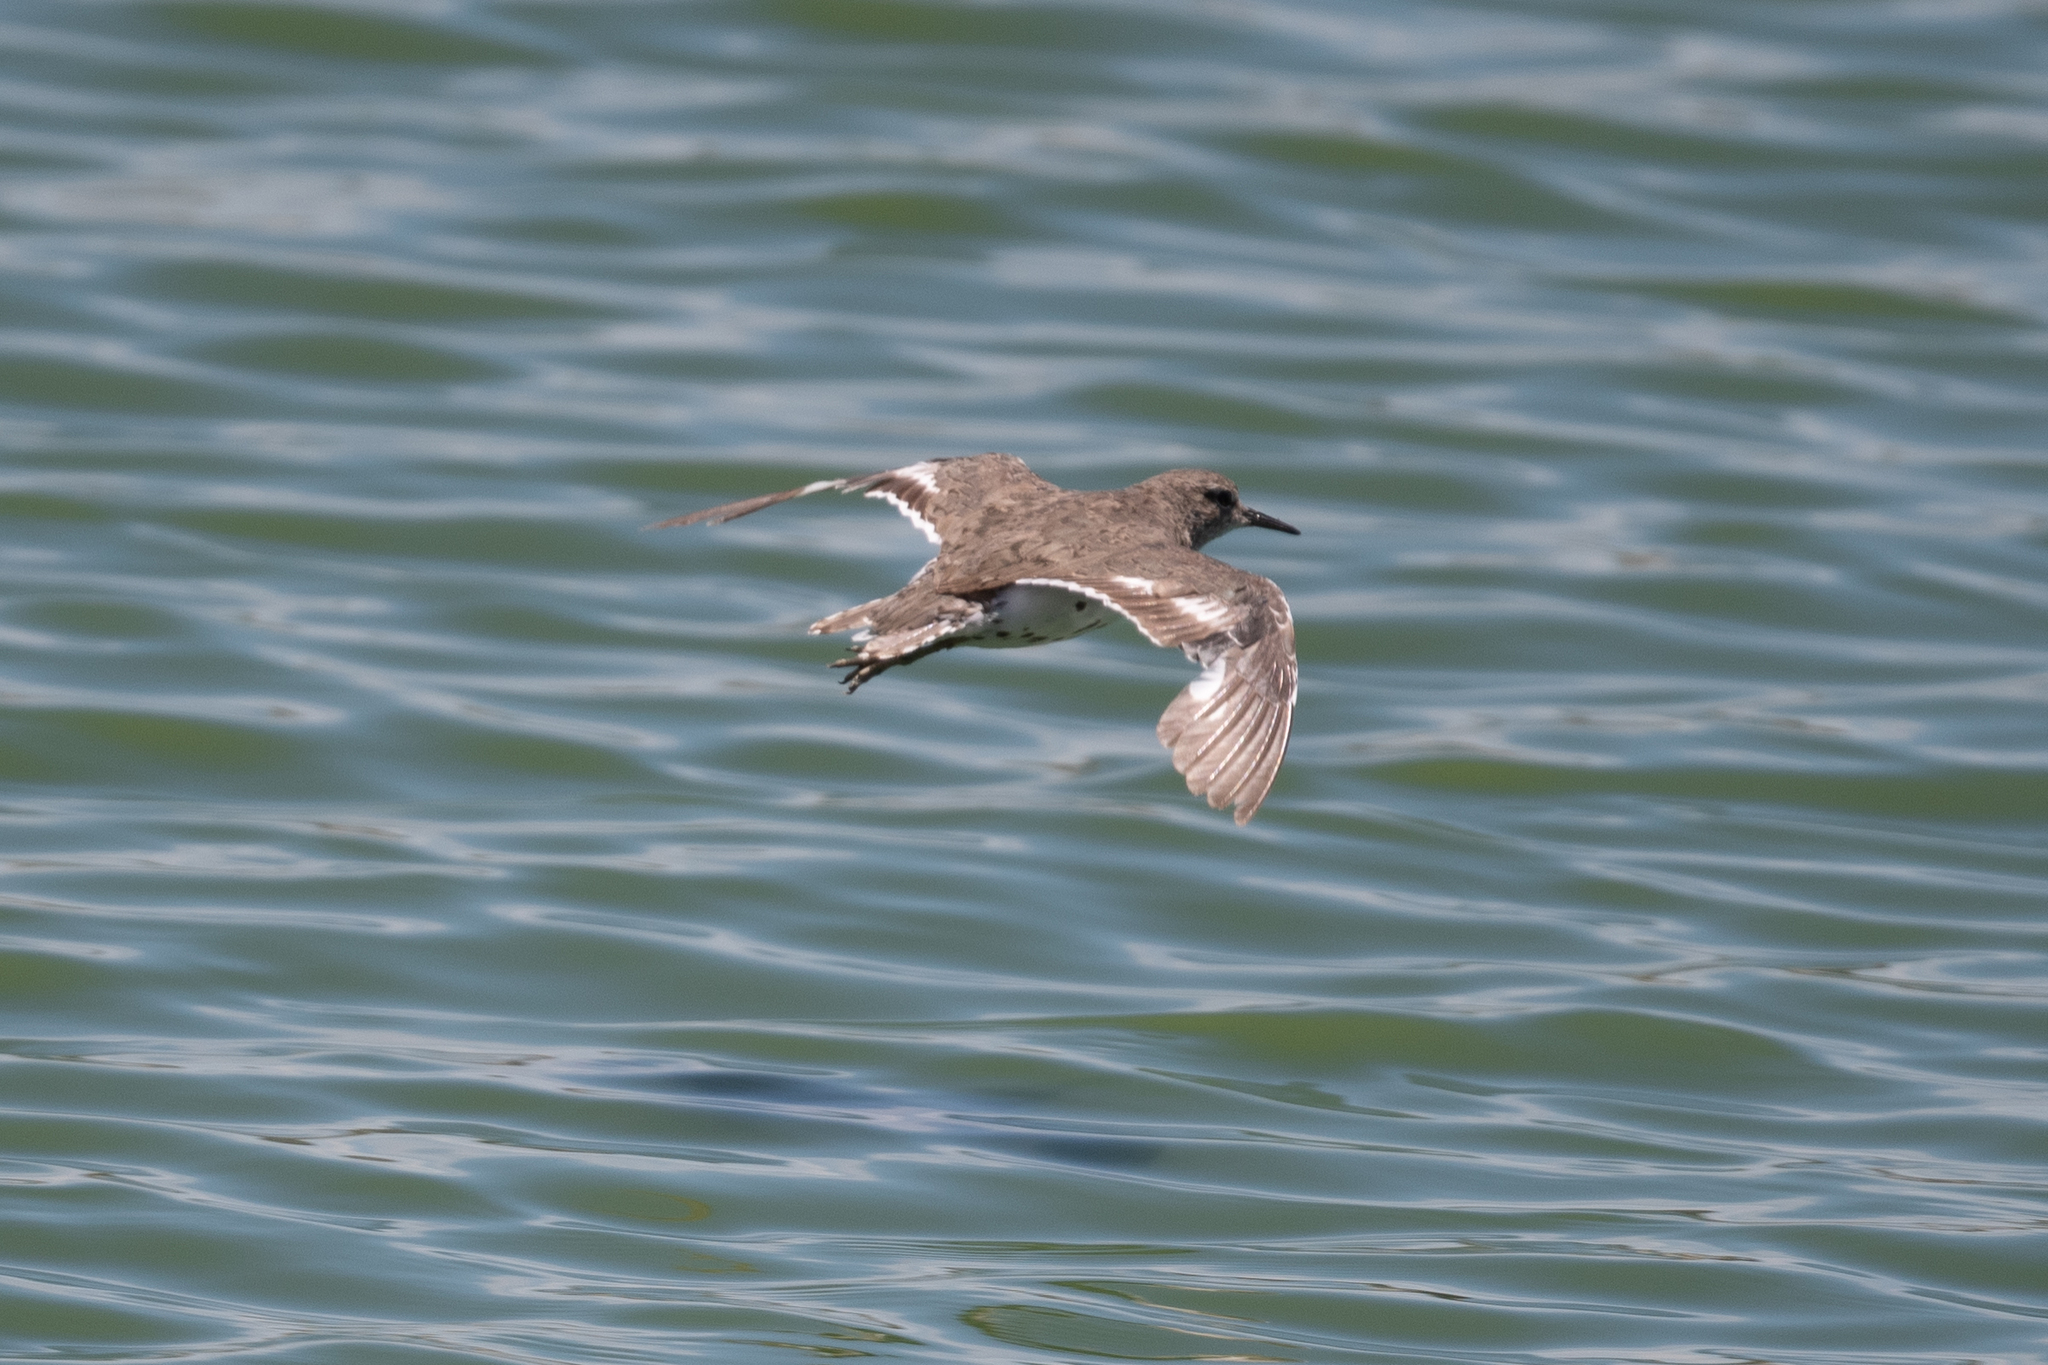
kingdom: Animalia
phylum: Chordata
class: Aves
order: Charadriiformes
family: Scolopacidae
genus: Actitis
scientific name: Actitis macularius
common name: Spotted sandpiper
